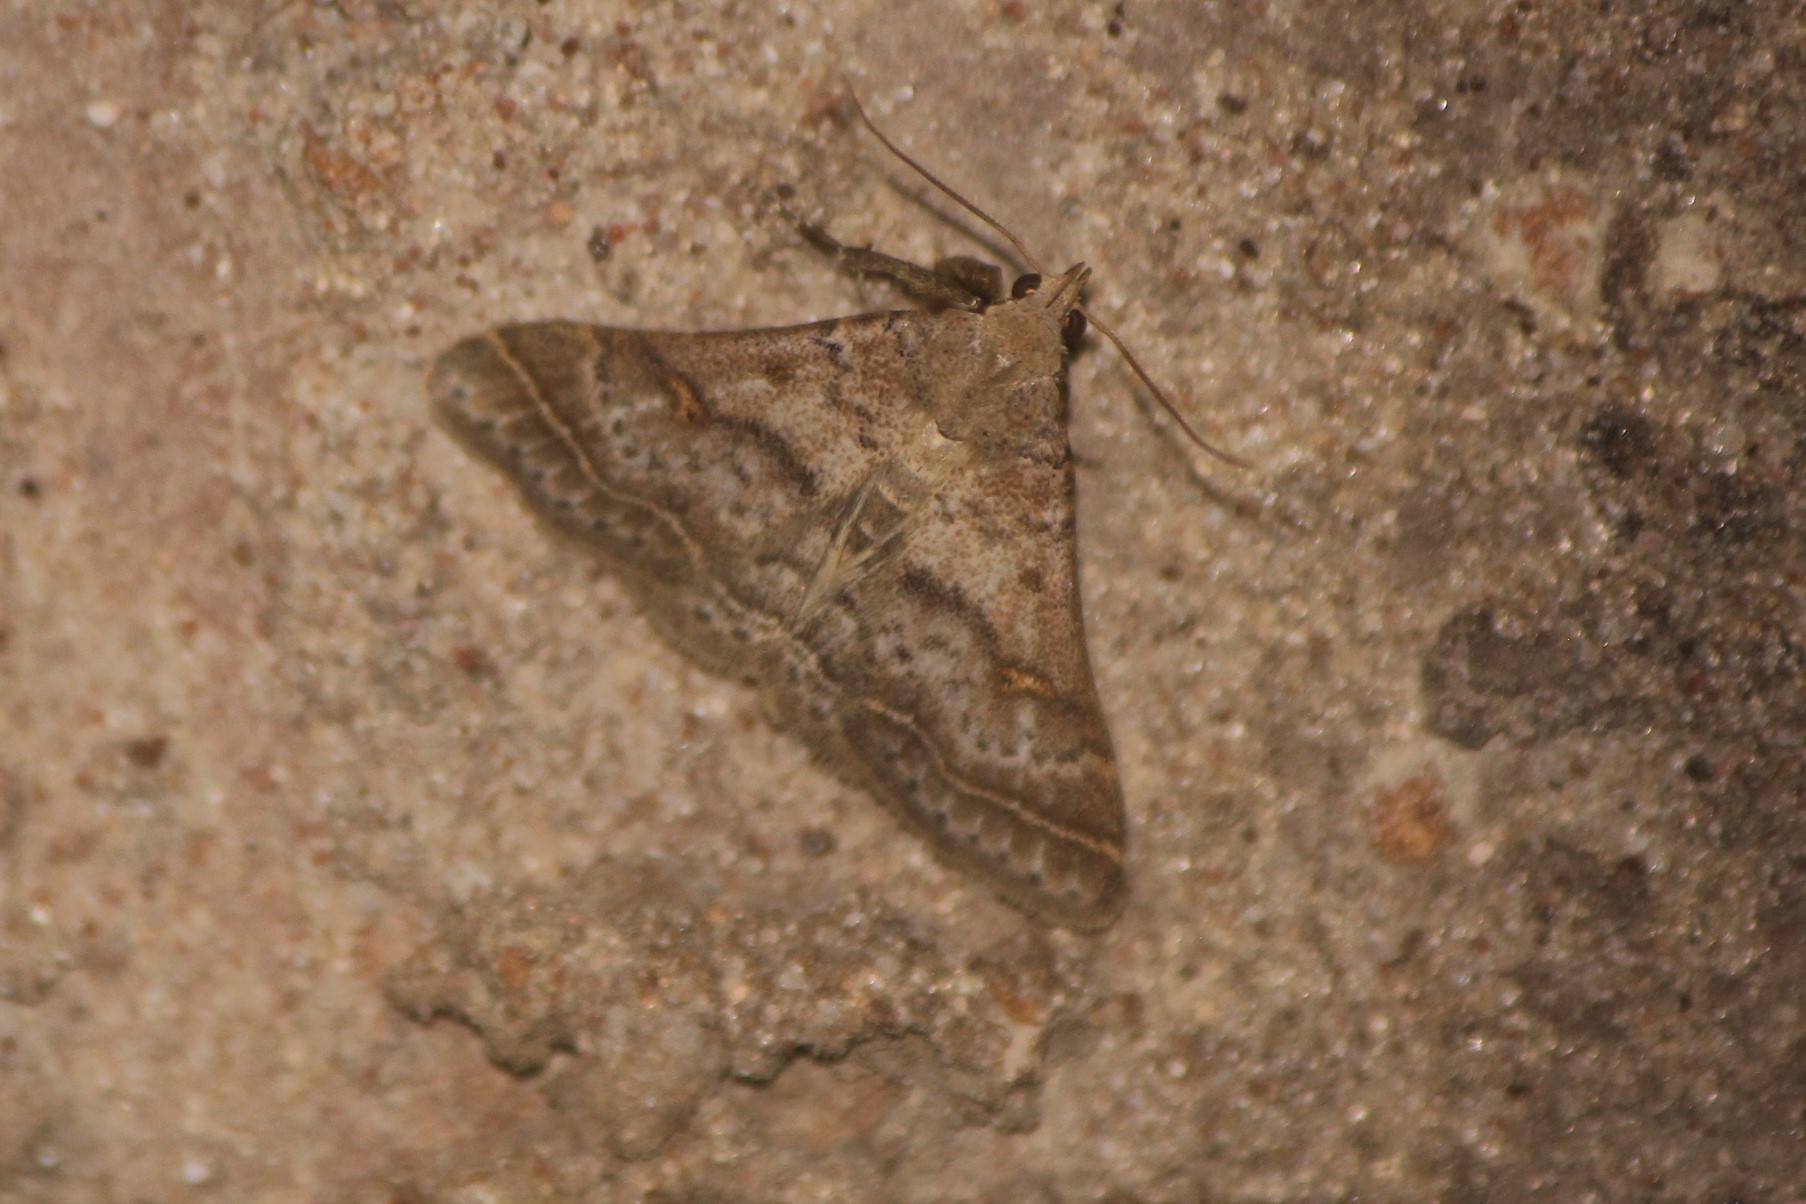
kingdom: Animalia
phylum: Arthropoda
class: Insecta
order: Lepidoptera
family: Erebidae
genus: Bleptina
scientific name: Bleptina caradrinalis
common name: Bent-winged owlet
